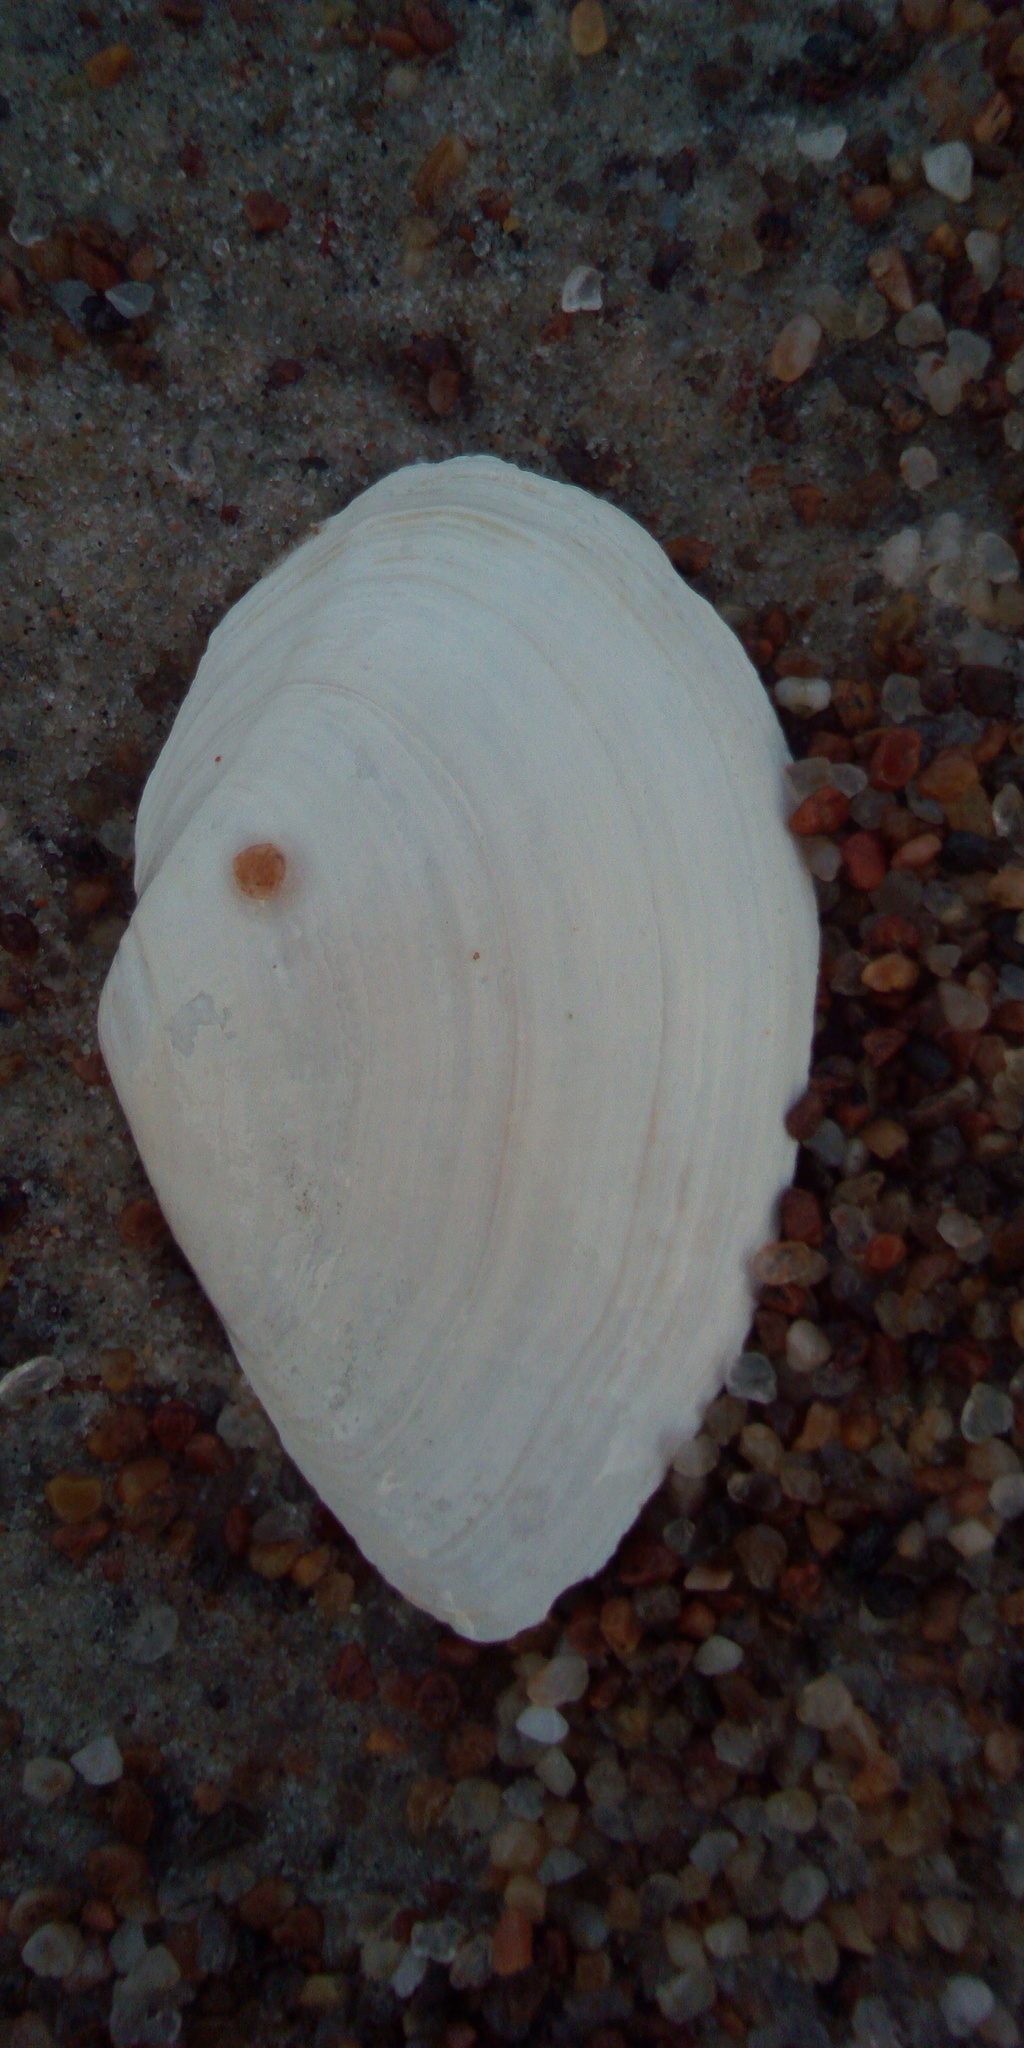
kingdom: Animalia
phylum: Mollusca
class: Bivalvia
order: Myida
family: Myidae
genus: Mya
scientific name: Mya arenaria
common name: Soft-shelled clam
